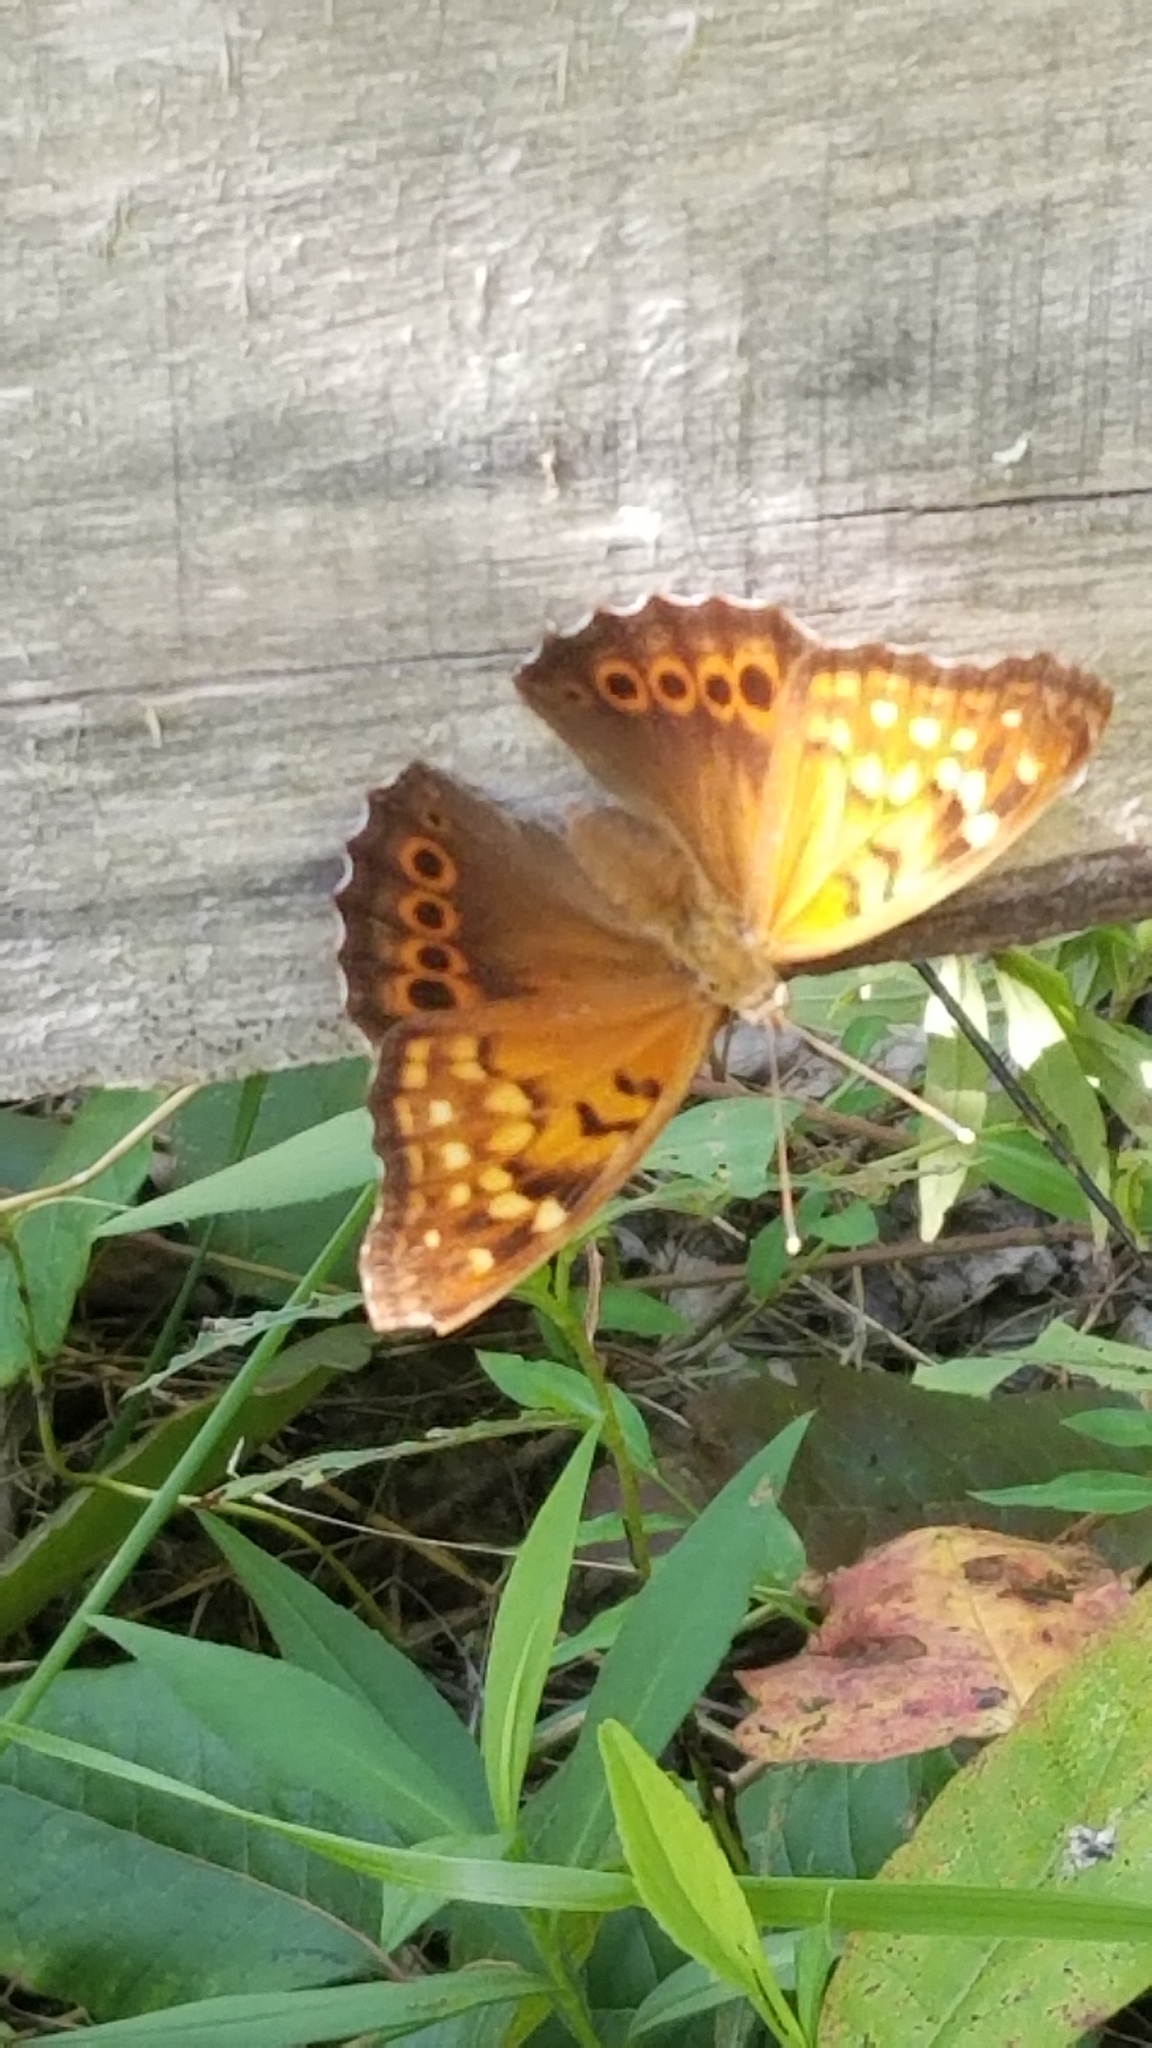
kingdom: Animalia
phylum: Arthropoda
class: Insecta
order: Lepidoptera
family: Nymphalidae
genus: Asterocampa
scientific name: Asterocampa clyton
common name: Tawny emperor
